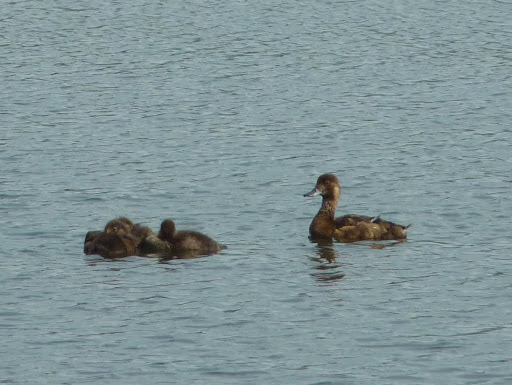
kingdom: Animalia
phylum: Chordata
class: Aves
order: Anseriformes
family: Anatidae
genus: Aythya
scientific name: Aythya marila
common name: Greater scaup
